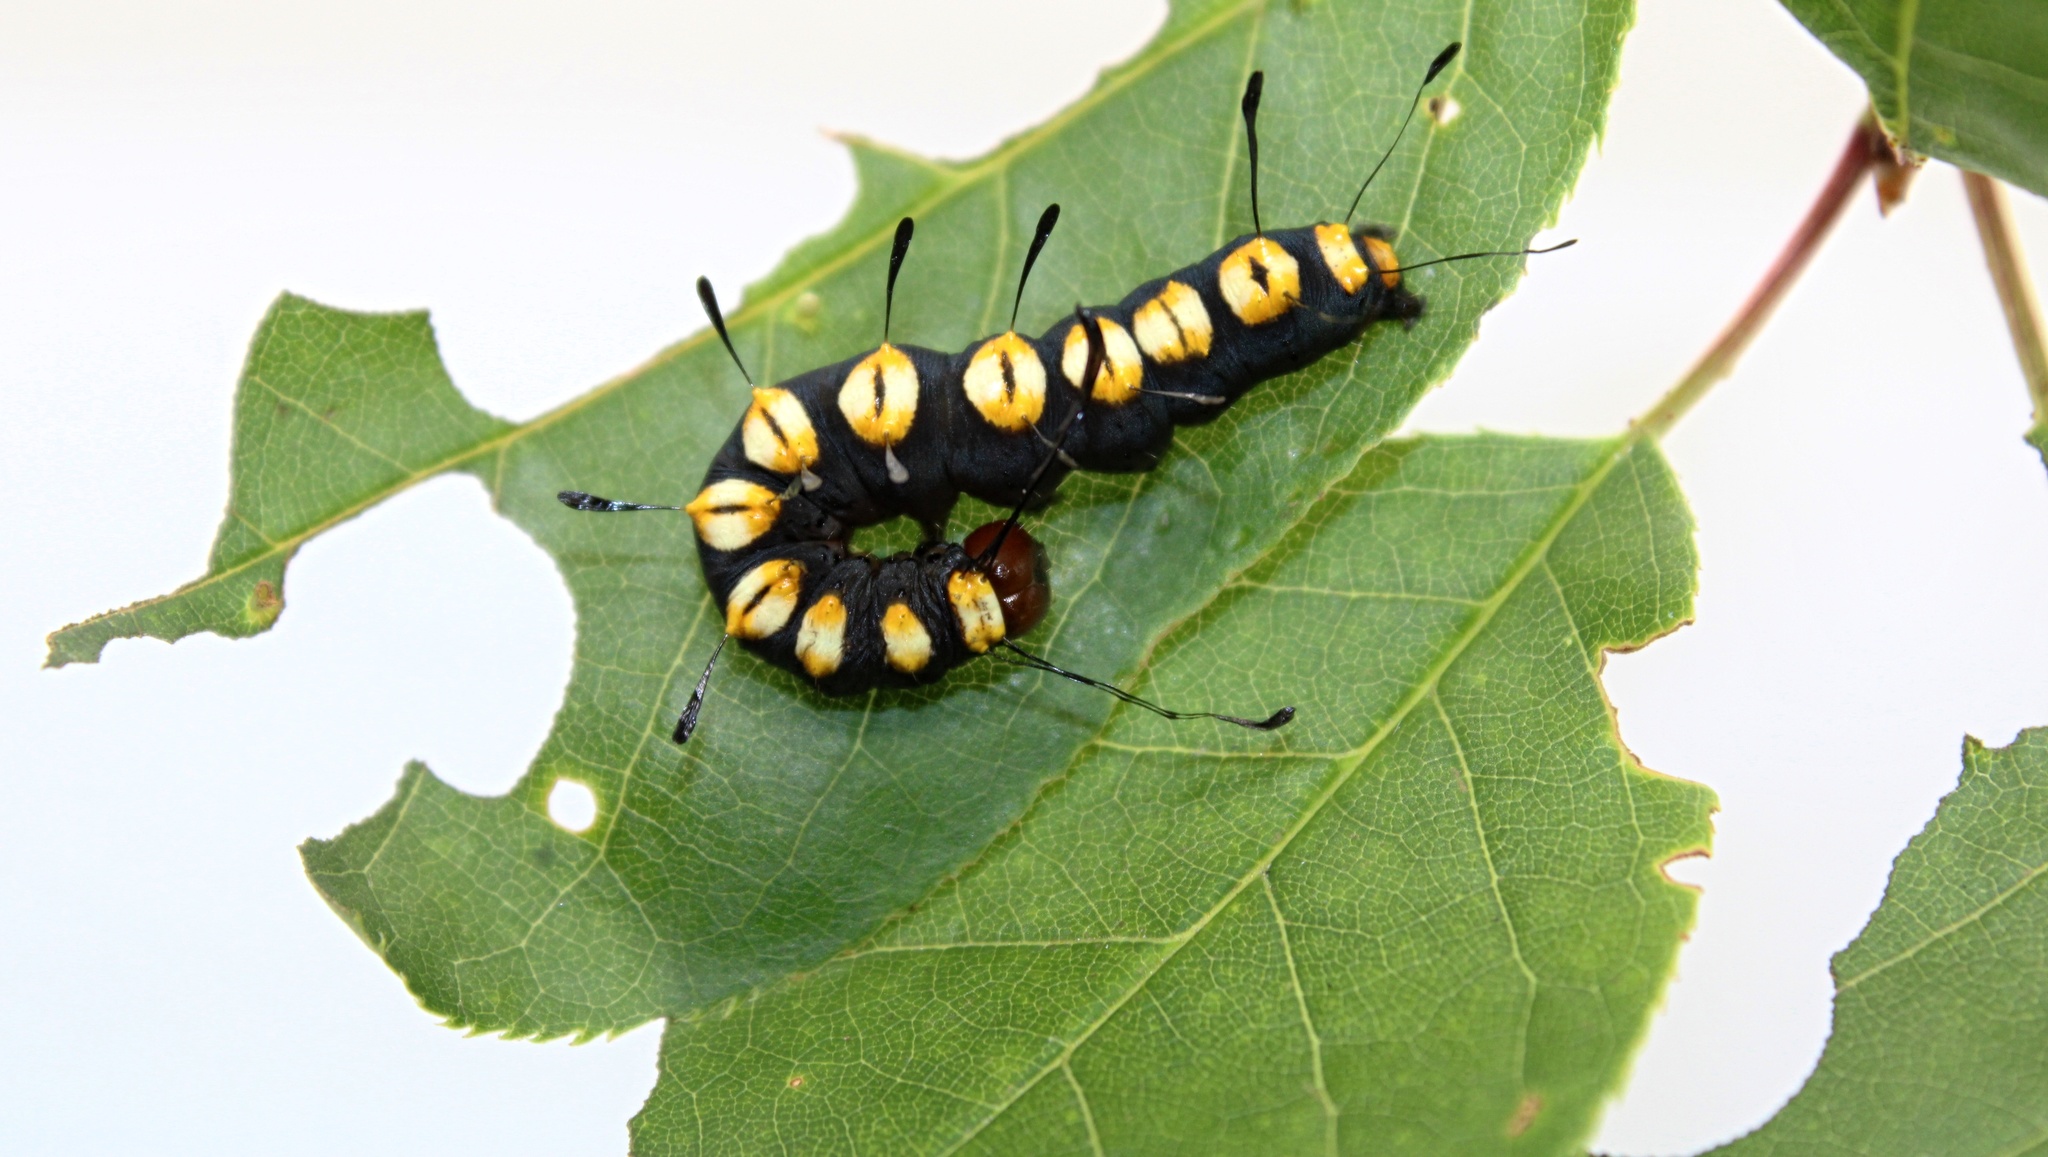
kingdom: Animalia
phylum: Arthropoda
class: Insecta
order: Lepidoptera
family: Noctuidae
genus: Acronicta
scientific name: Acronicta funeralis
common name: Funerary dagger
